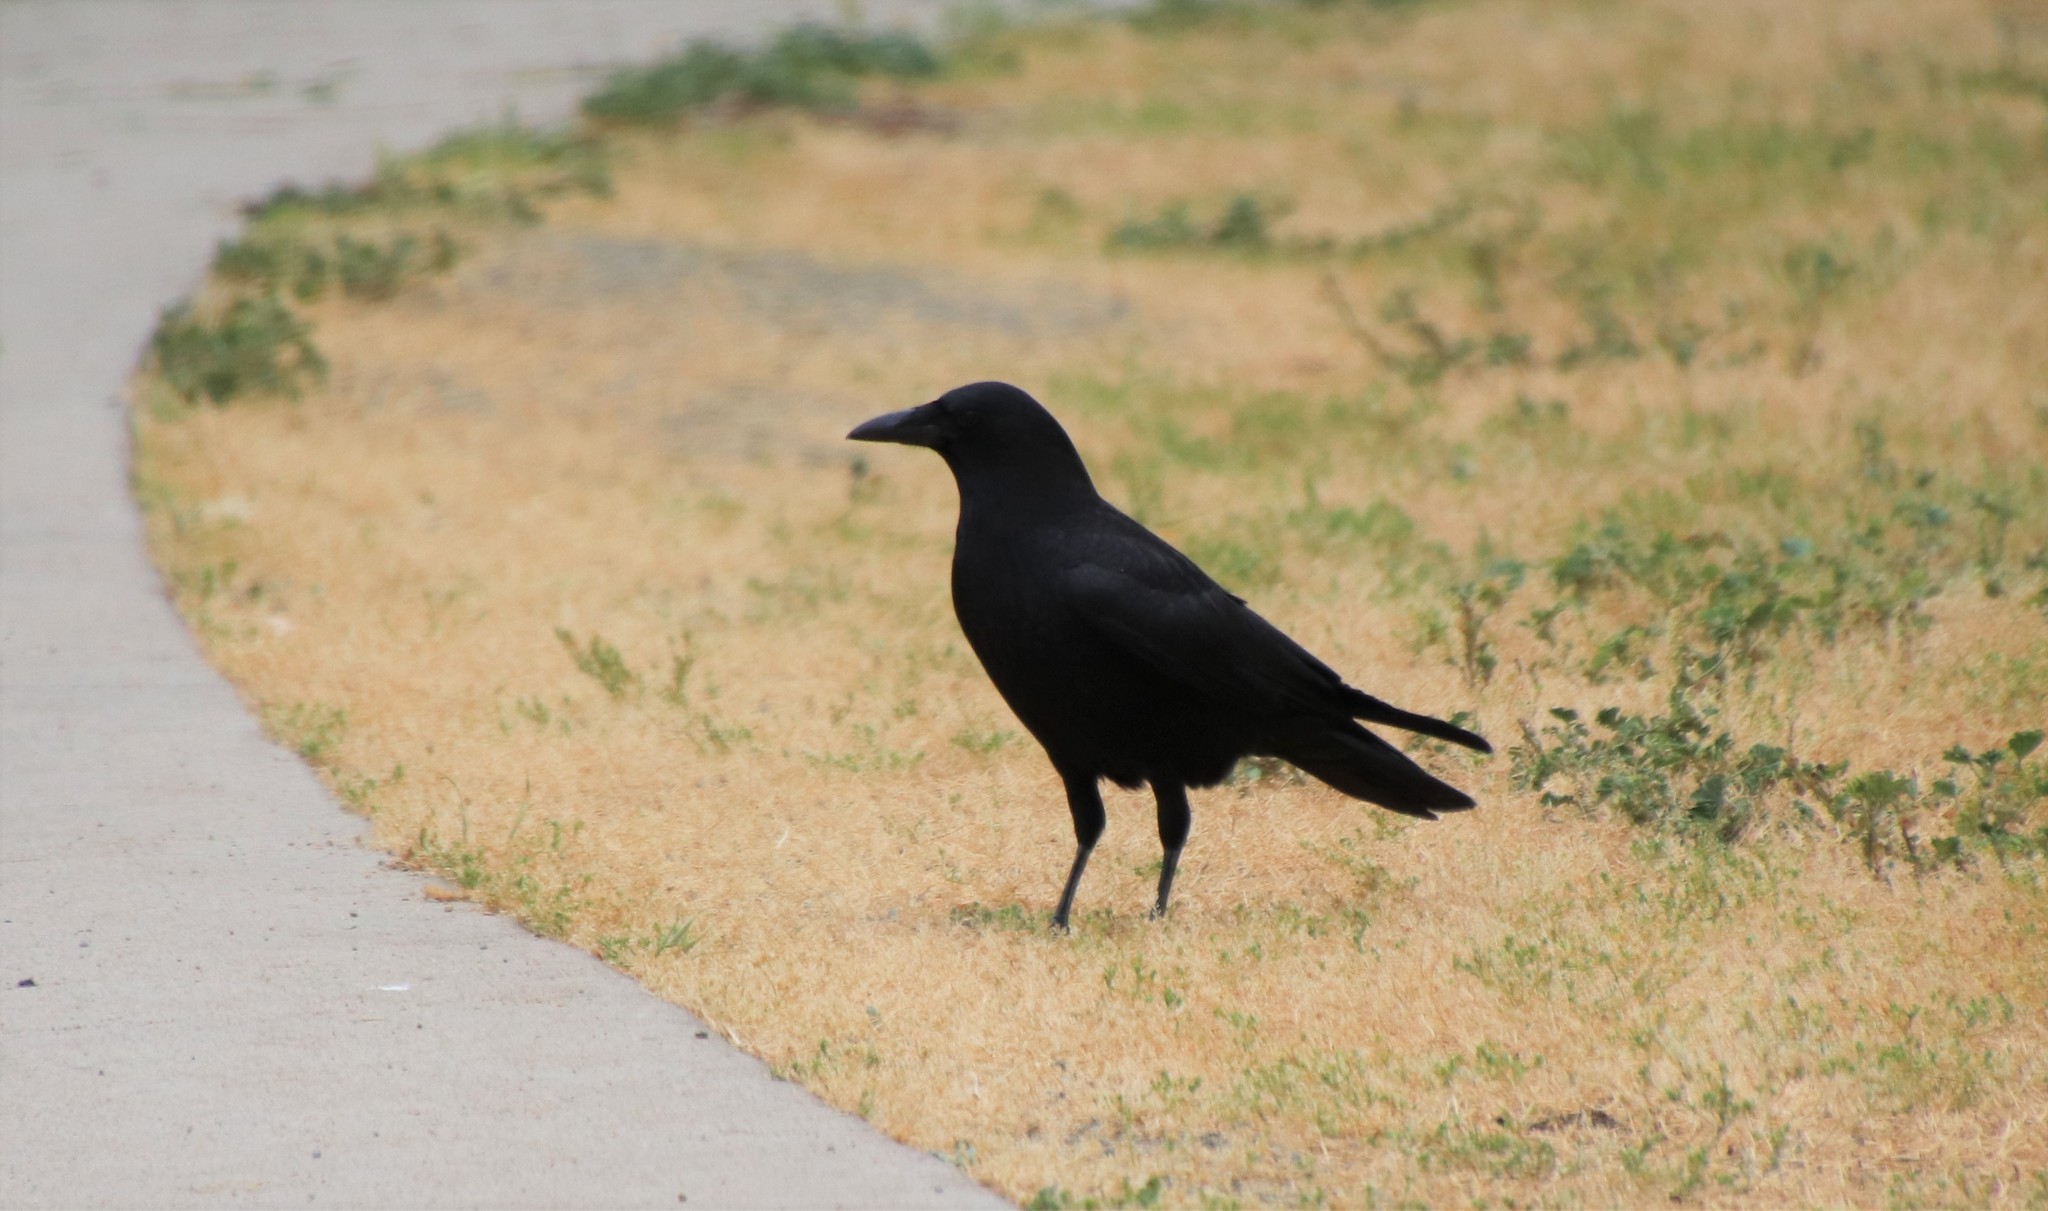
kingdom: Animalia
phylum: Chordata
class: Aves
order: Passeriformes
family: Corvidae
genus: Corvus
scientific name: Corvus brachyrhynchos
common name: American crow
